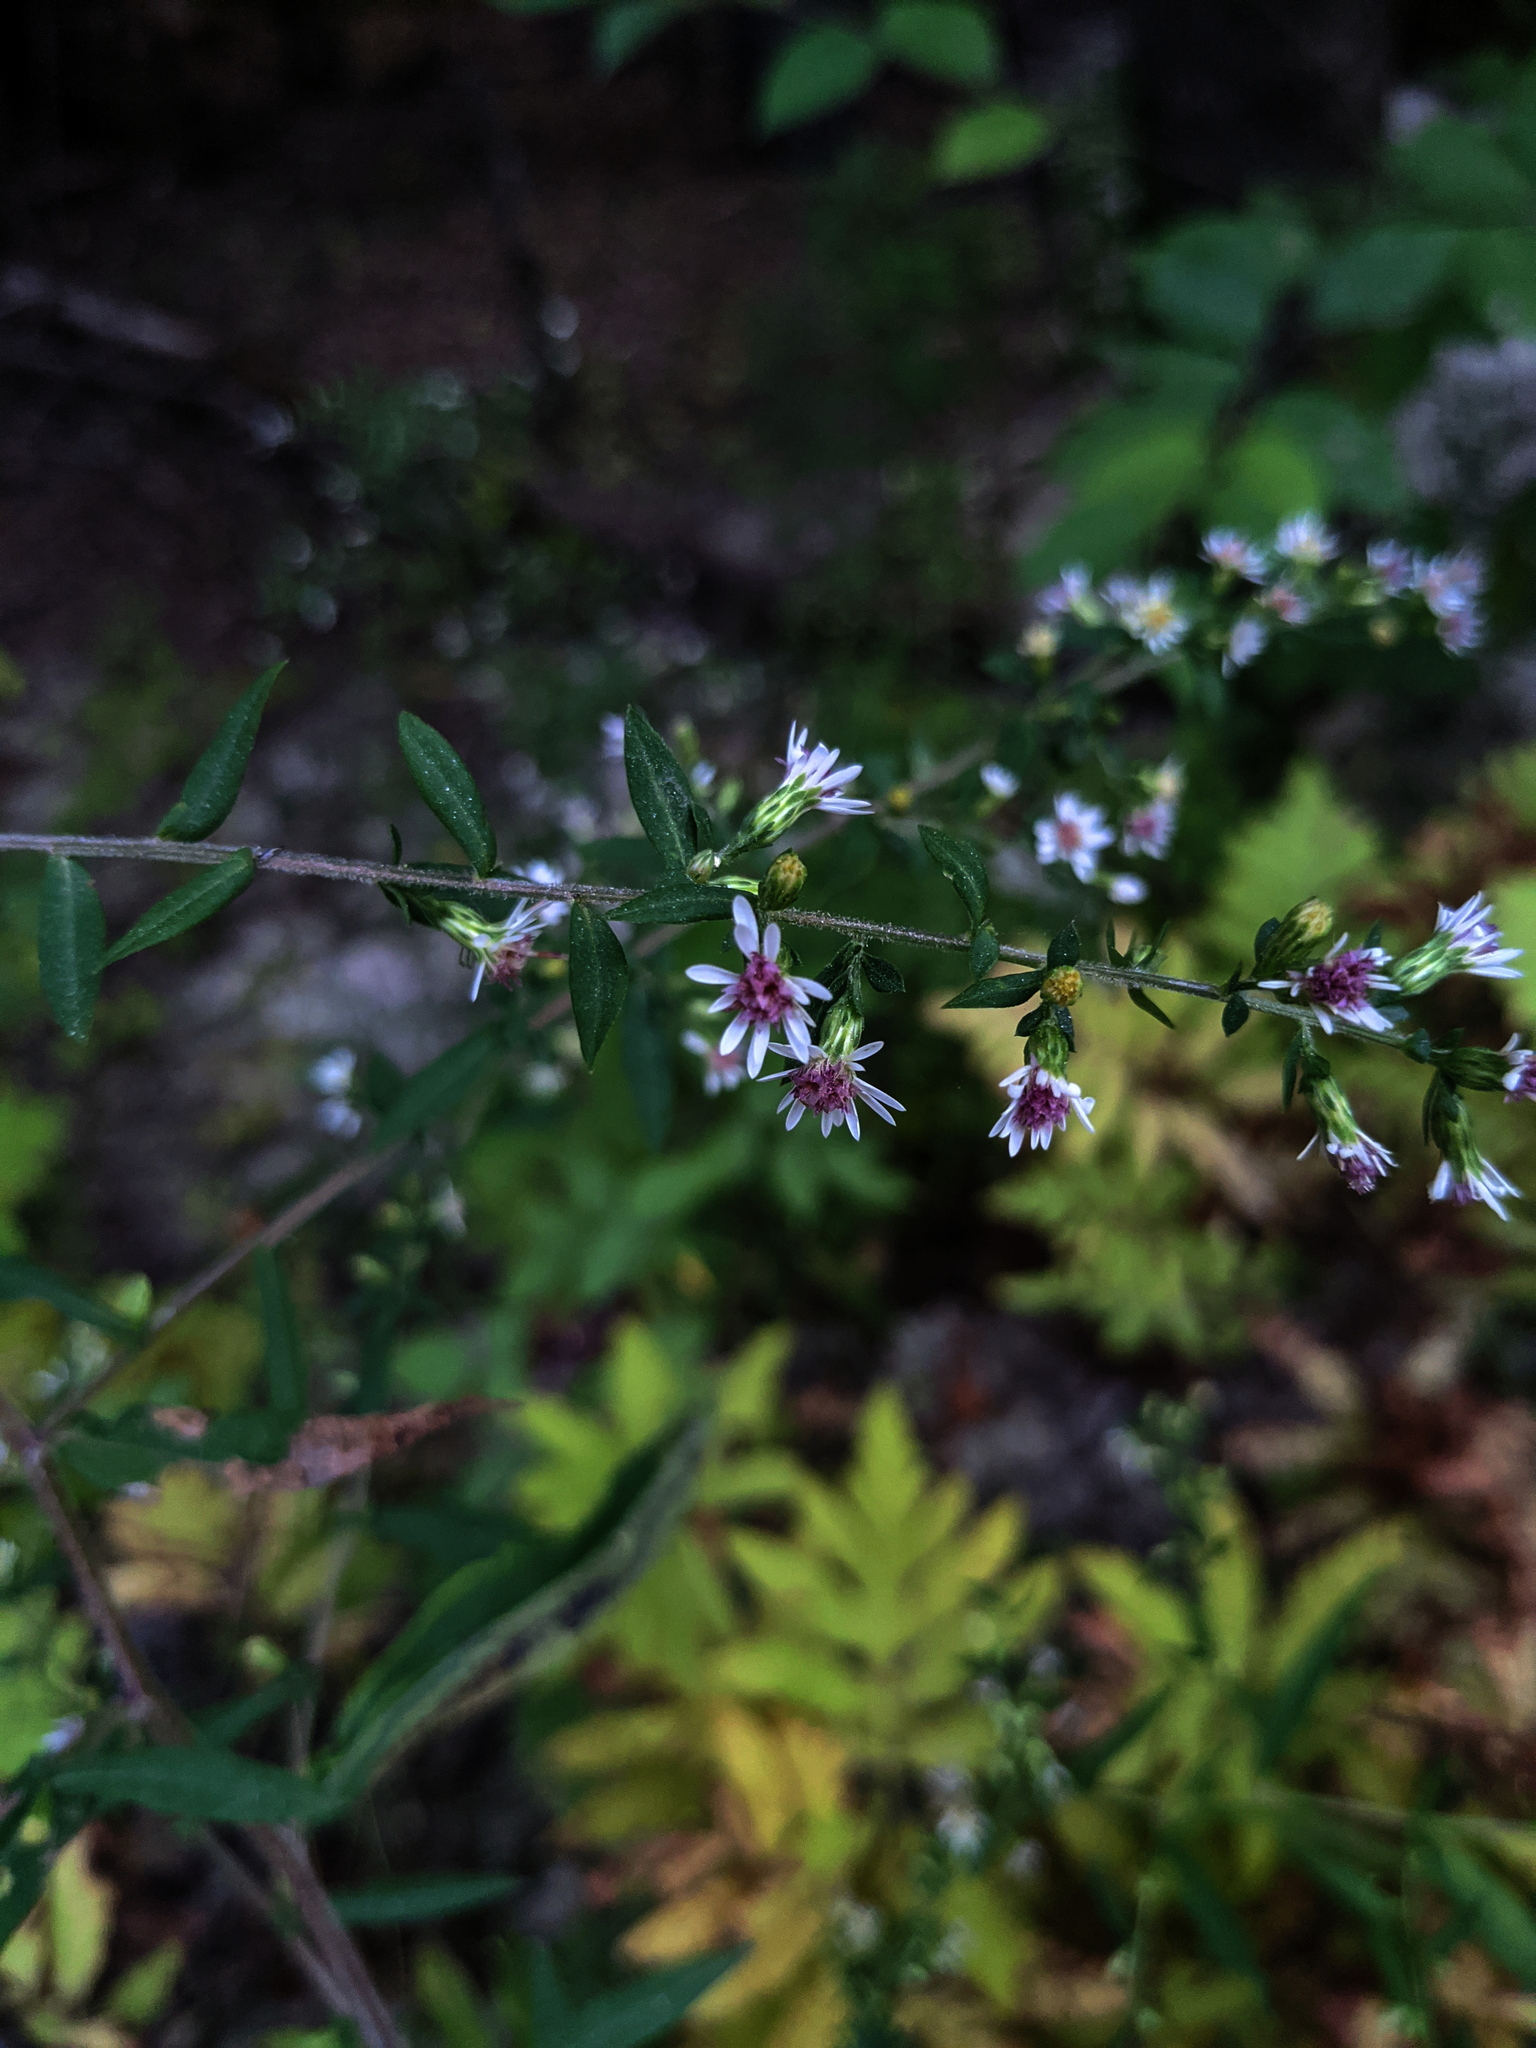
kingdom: Plantae
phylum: Tracheophyta
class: Magnoliopsida
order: Asterales
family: Asteraceae
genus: Symphyotrichum
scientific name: Symphyotrichum lateriflorum
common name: Calico aster
